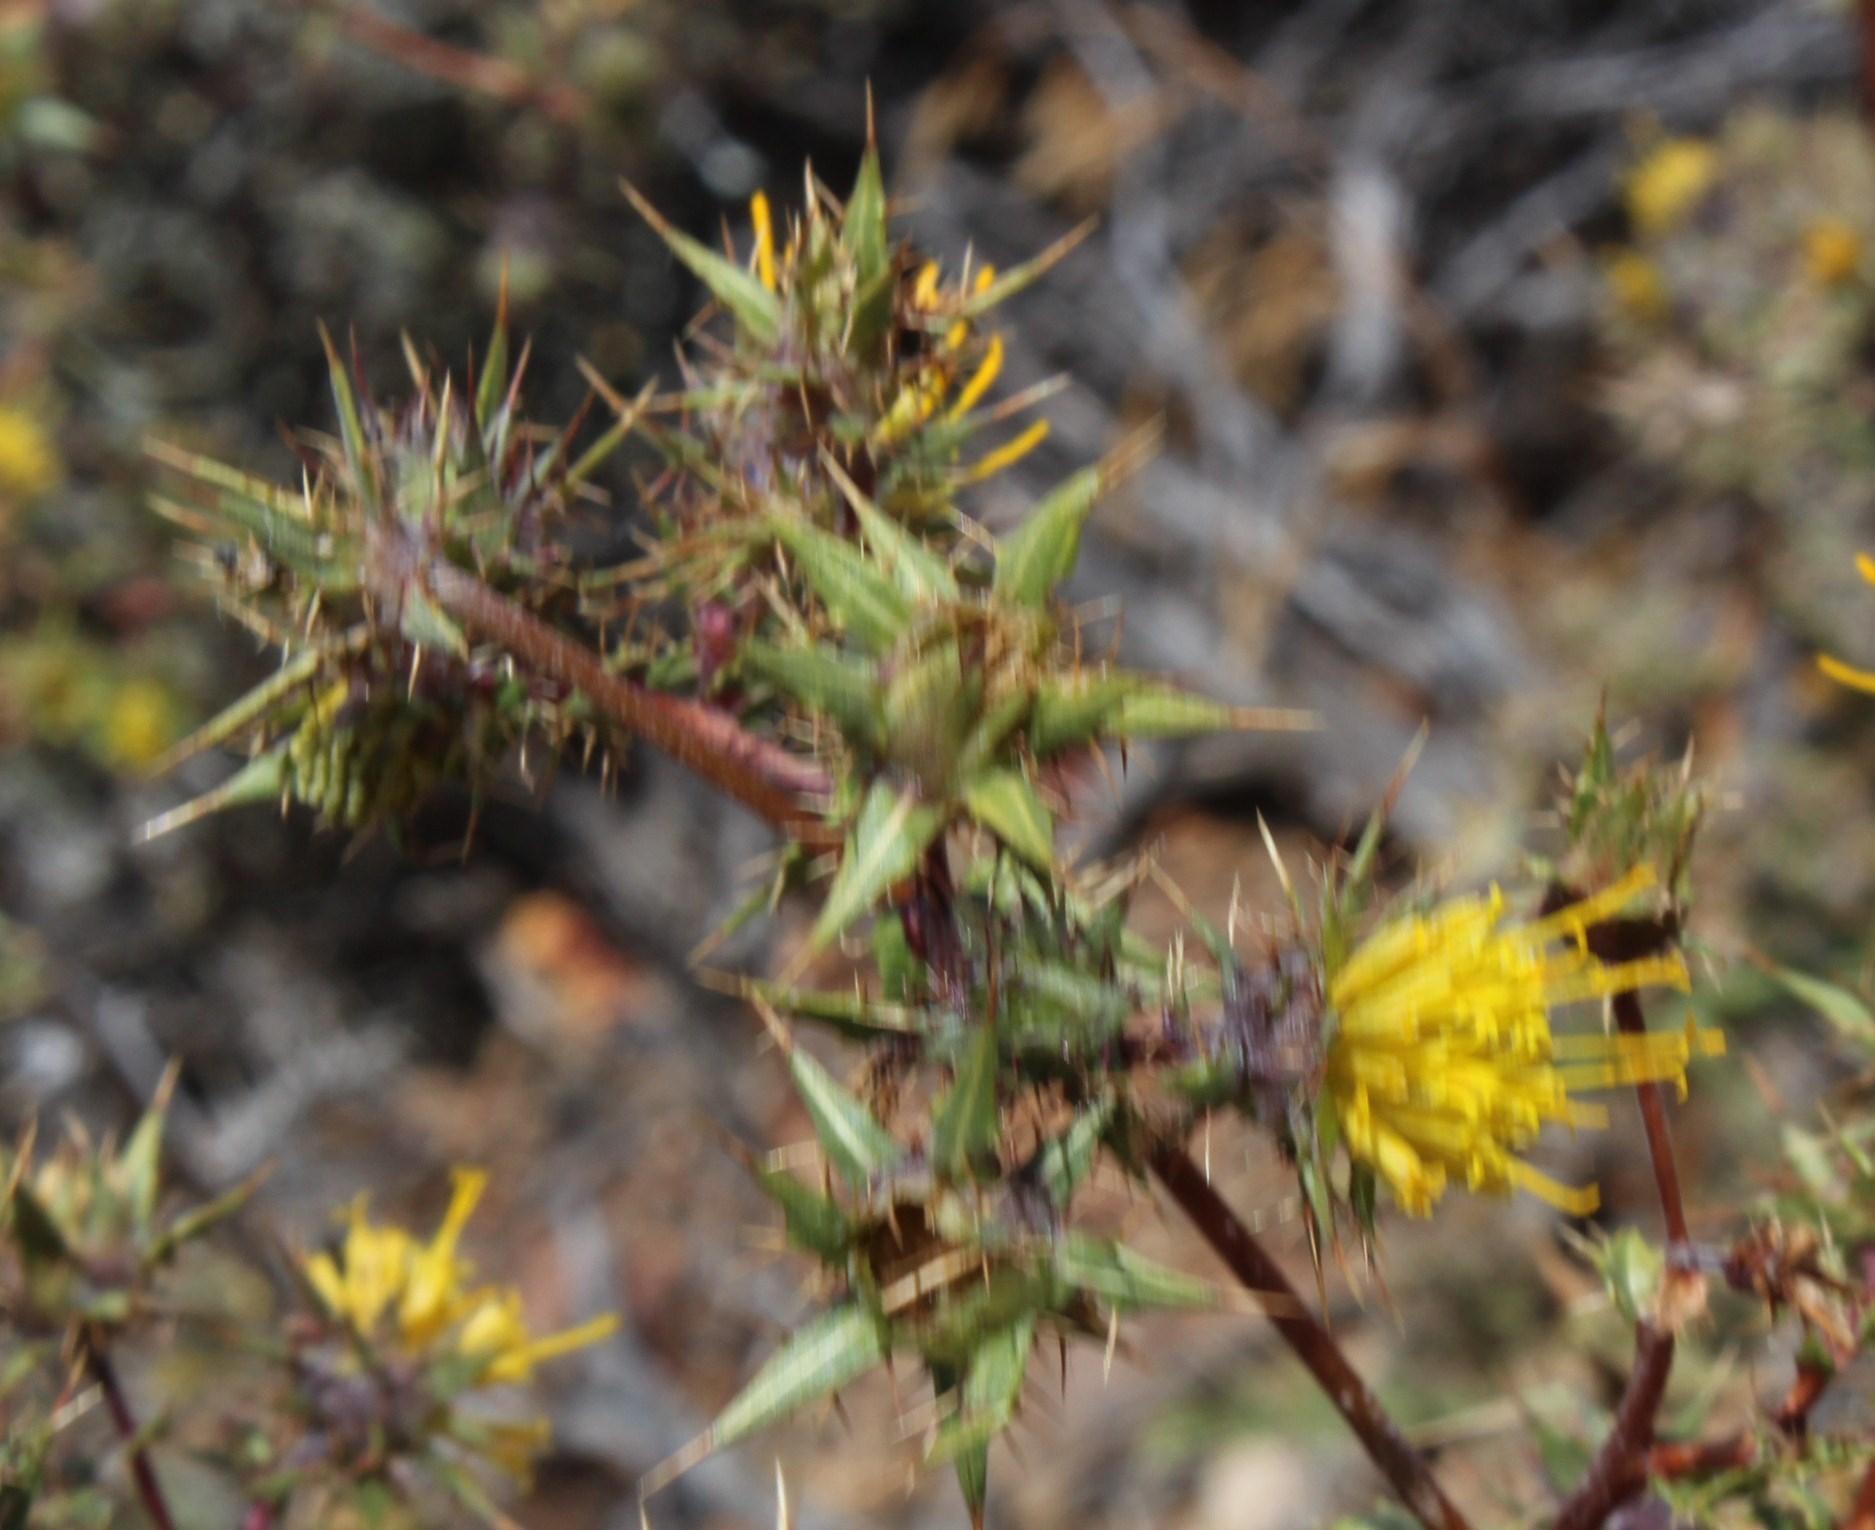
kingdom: Plantae
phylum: Tracheophyta
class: Magnoliopsida
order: Asterales
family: Asteraceae
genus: Berkheya
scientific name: Berkheya onobromoides
